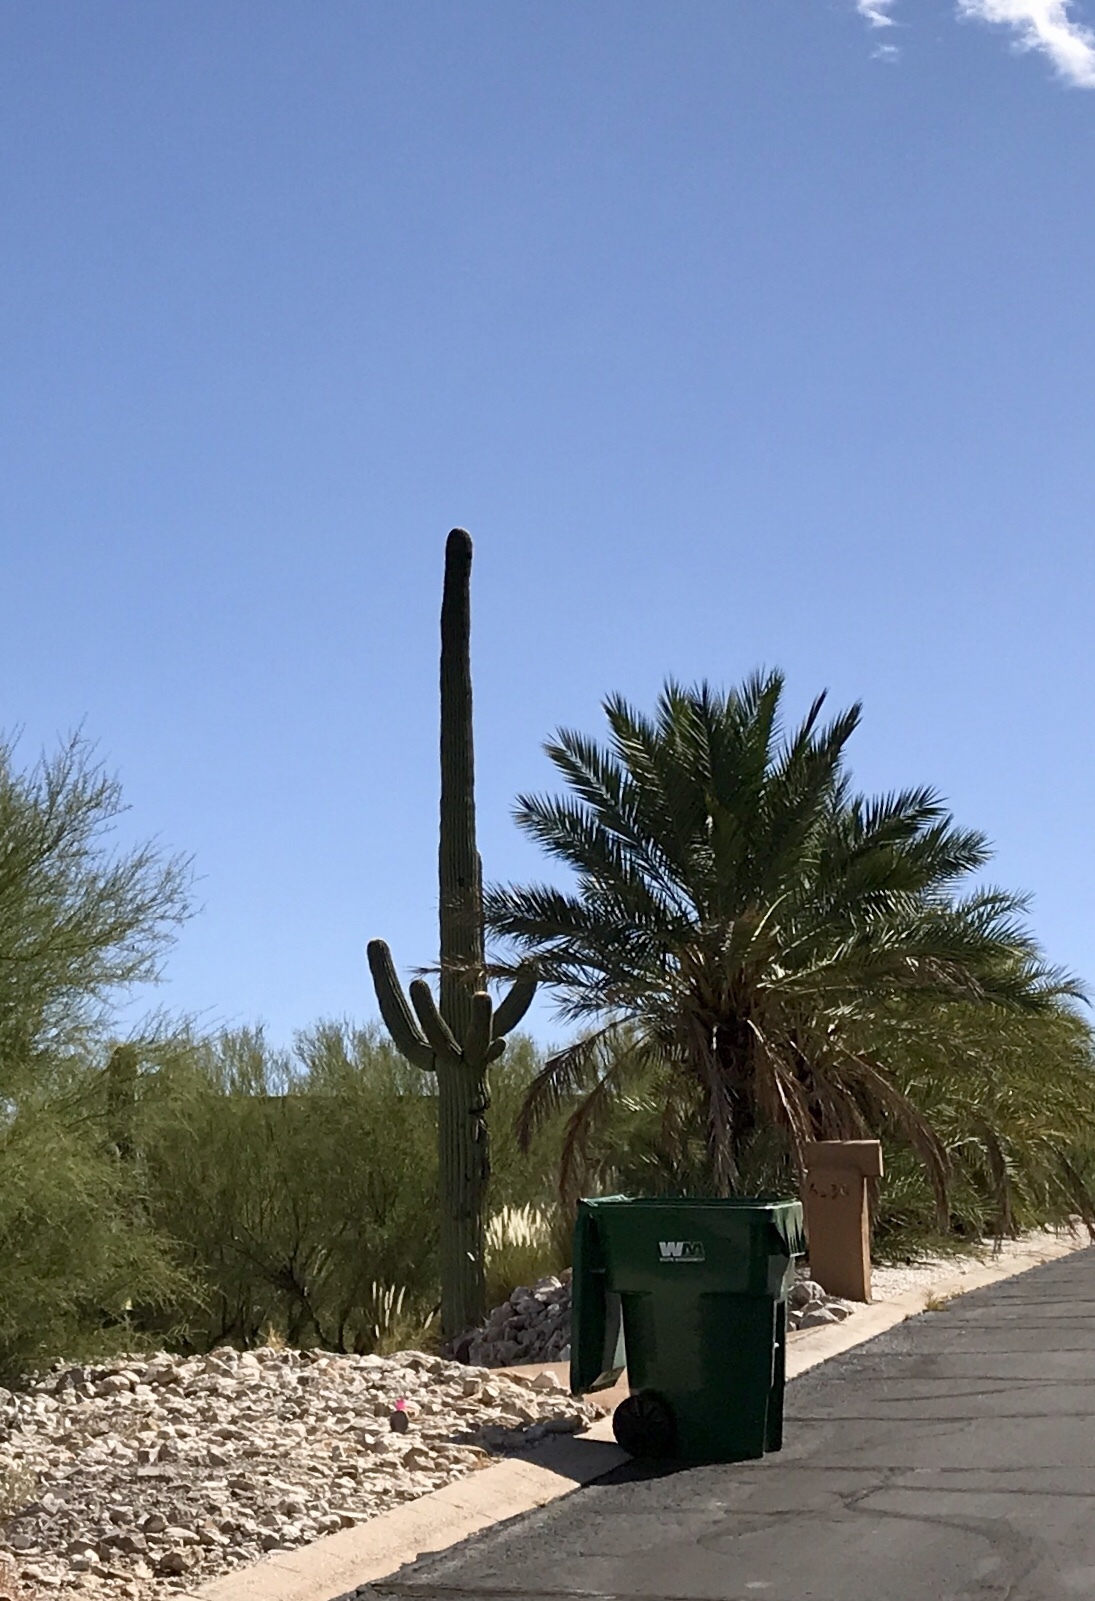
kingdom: Plantae
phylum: Tracheophyta
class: Magnoliopsida
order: Caryophyllales
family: Cactaceae
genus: Carnegiea
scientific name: Carnegiea gigantea
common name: Saguaro
